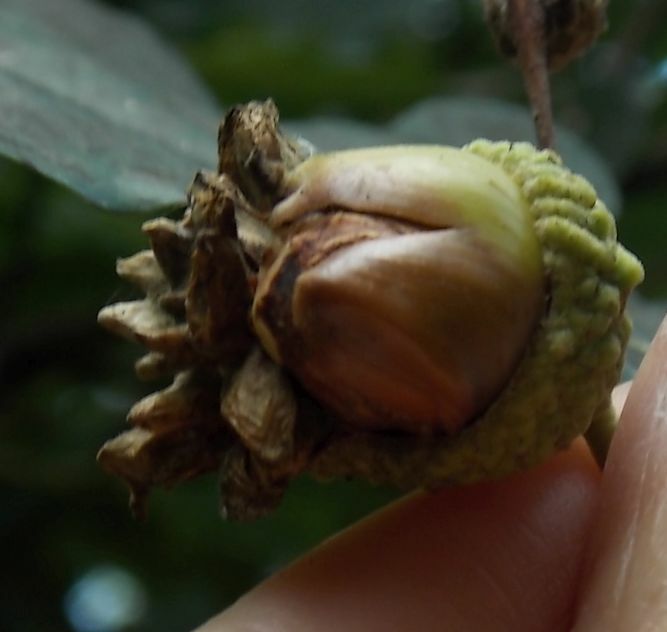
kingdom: Animalia
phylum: Arthropoda
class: Insecta
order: Hymenoptera
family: Cynipidae
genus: Andricus
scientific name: Andricus quercuscalicis
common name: Knopper gall
